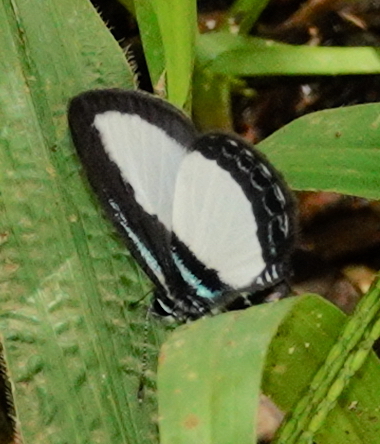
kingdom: Animalia
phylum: Arthropoda
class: Insecta
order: Lepidoptera
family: Lycaenidae
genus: Psychonotis
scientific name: Psychonotis
